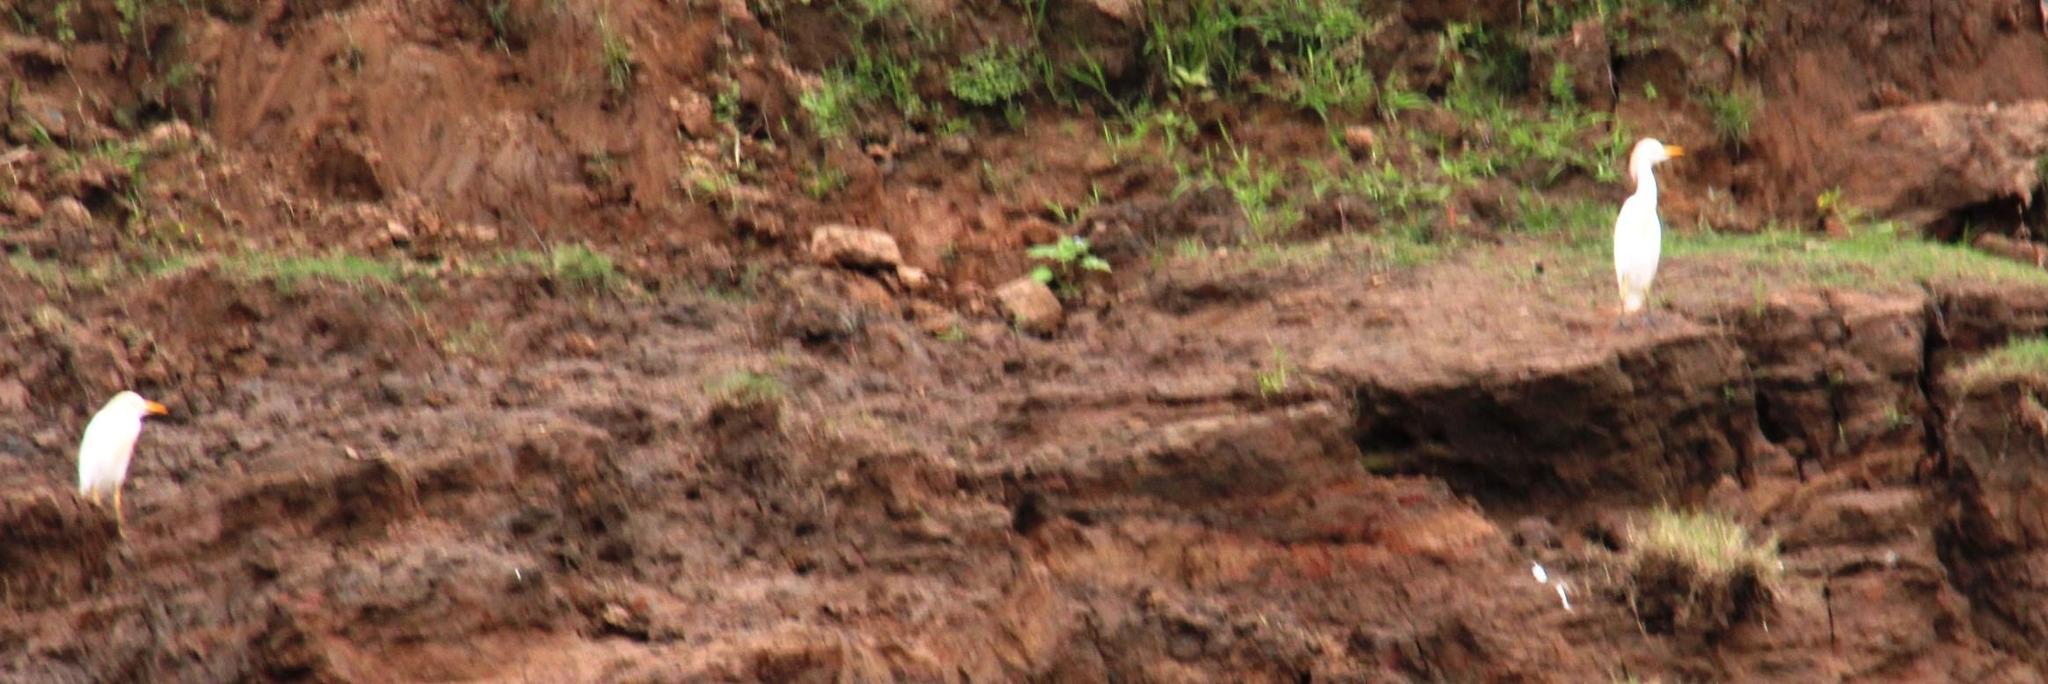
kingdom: Animalia
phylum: Chordata
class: Aves
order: Pelecaniformes
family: Ardeidae
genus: Bubulcus
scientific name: Bubulcus ibis
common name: Cattle egret
